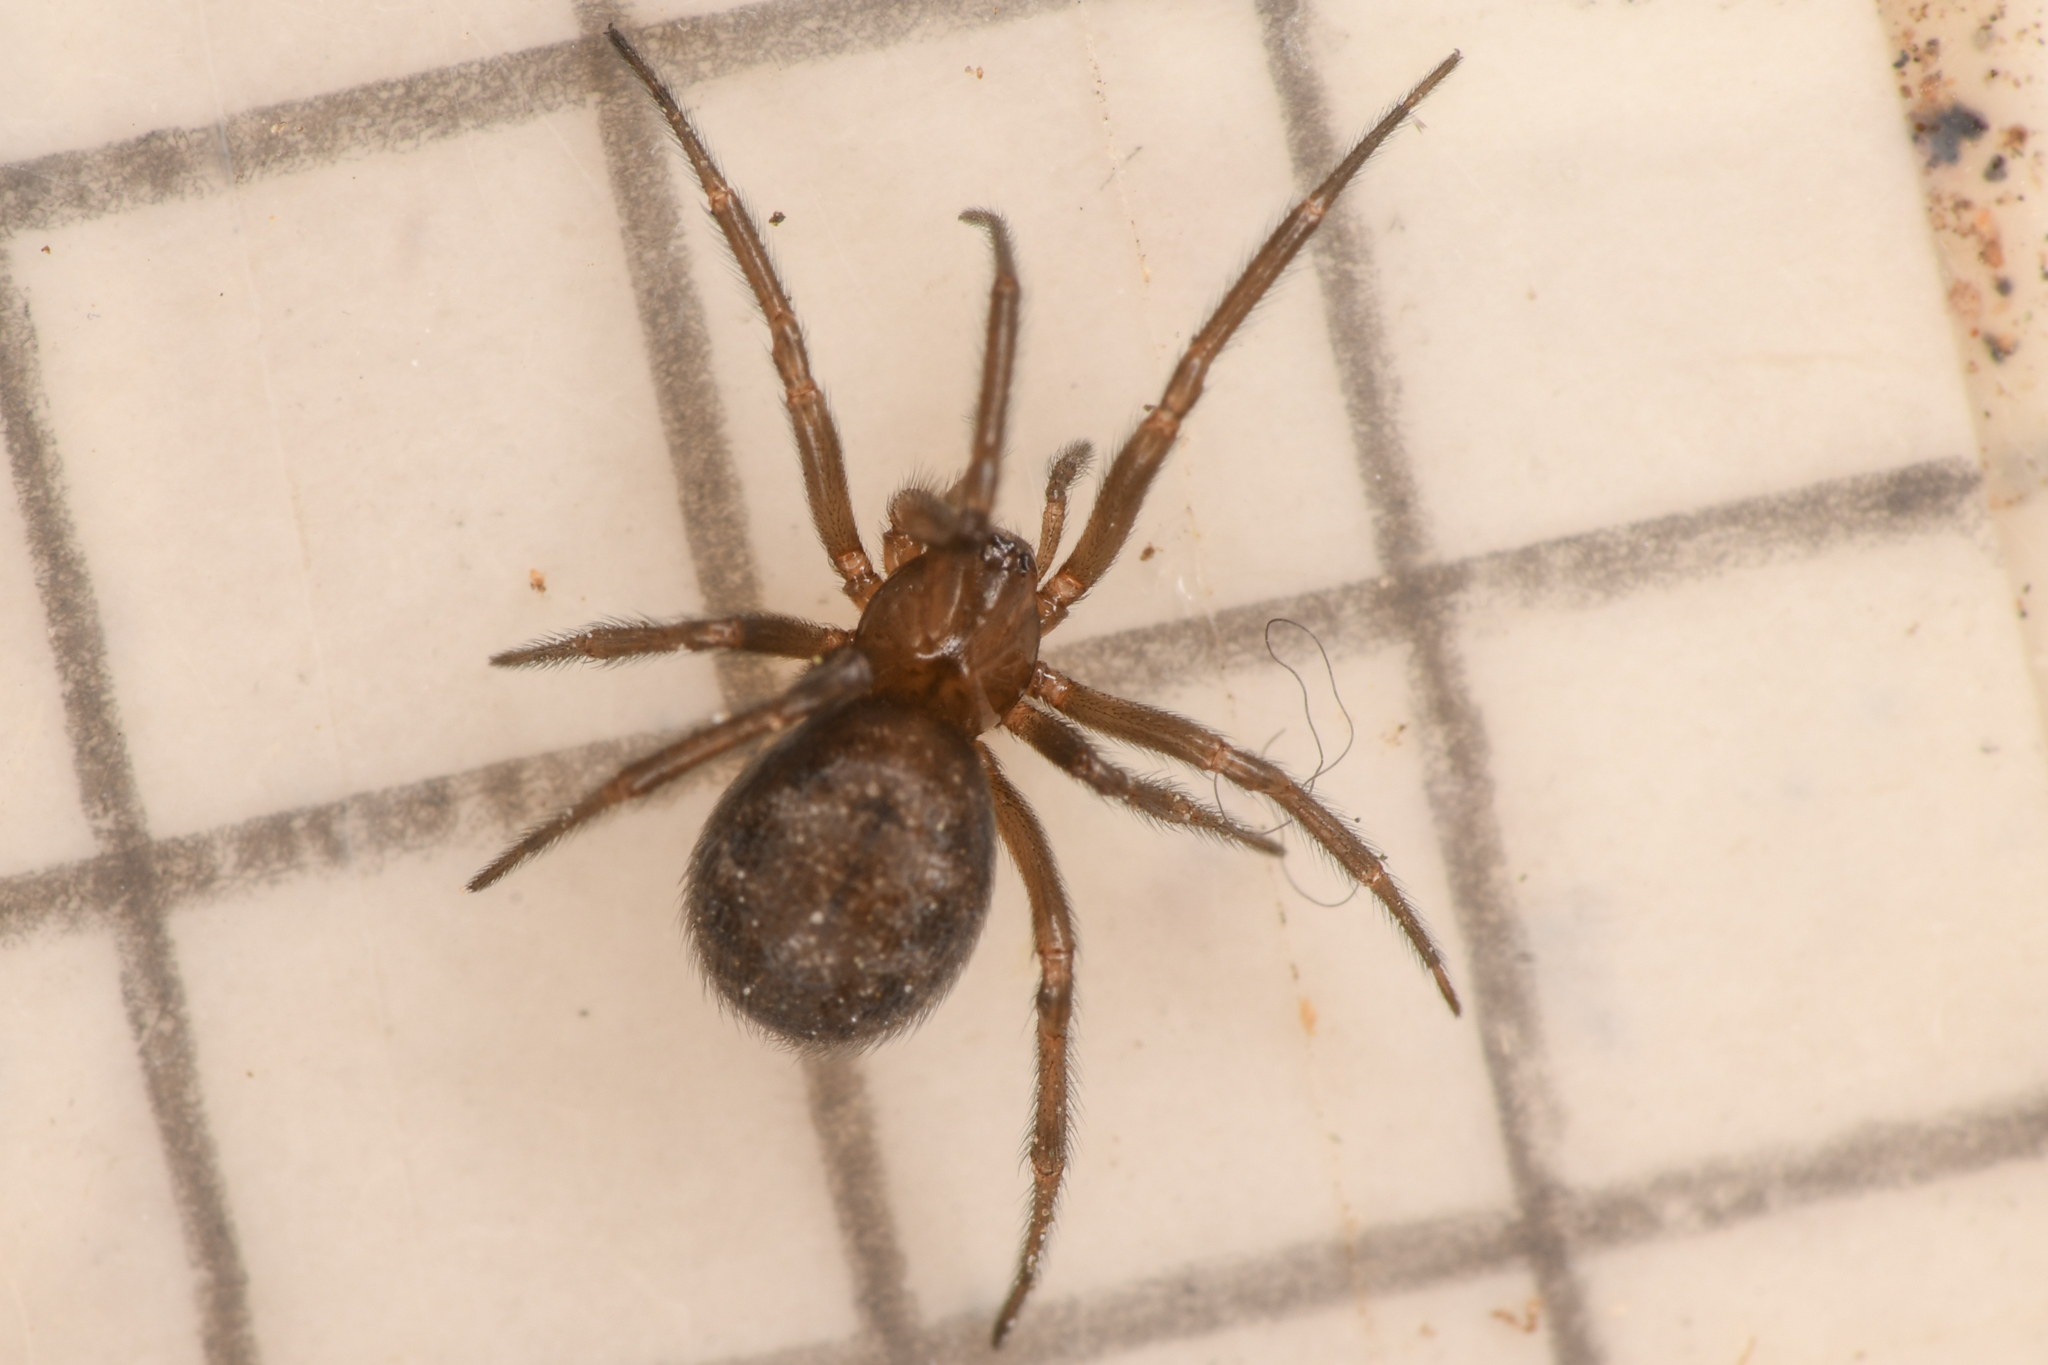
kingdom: Animalia
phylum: Arthropoda
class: Arachnida
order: Araneae
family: Theridiidae
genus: Enoplognatha
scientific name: Enoplognatha intrepida
